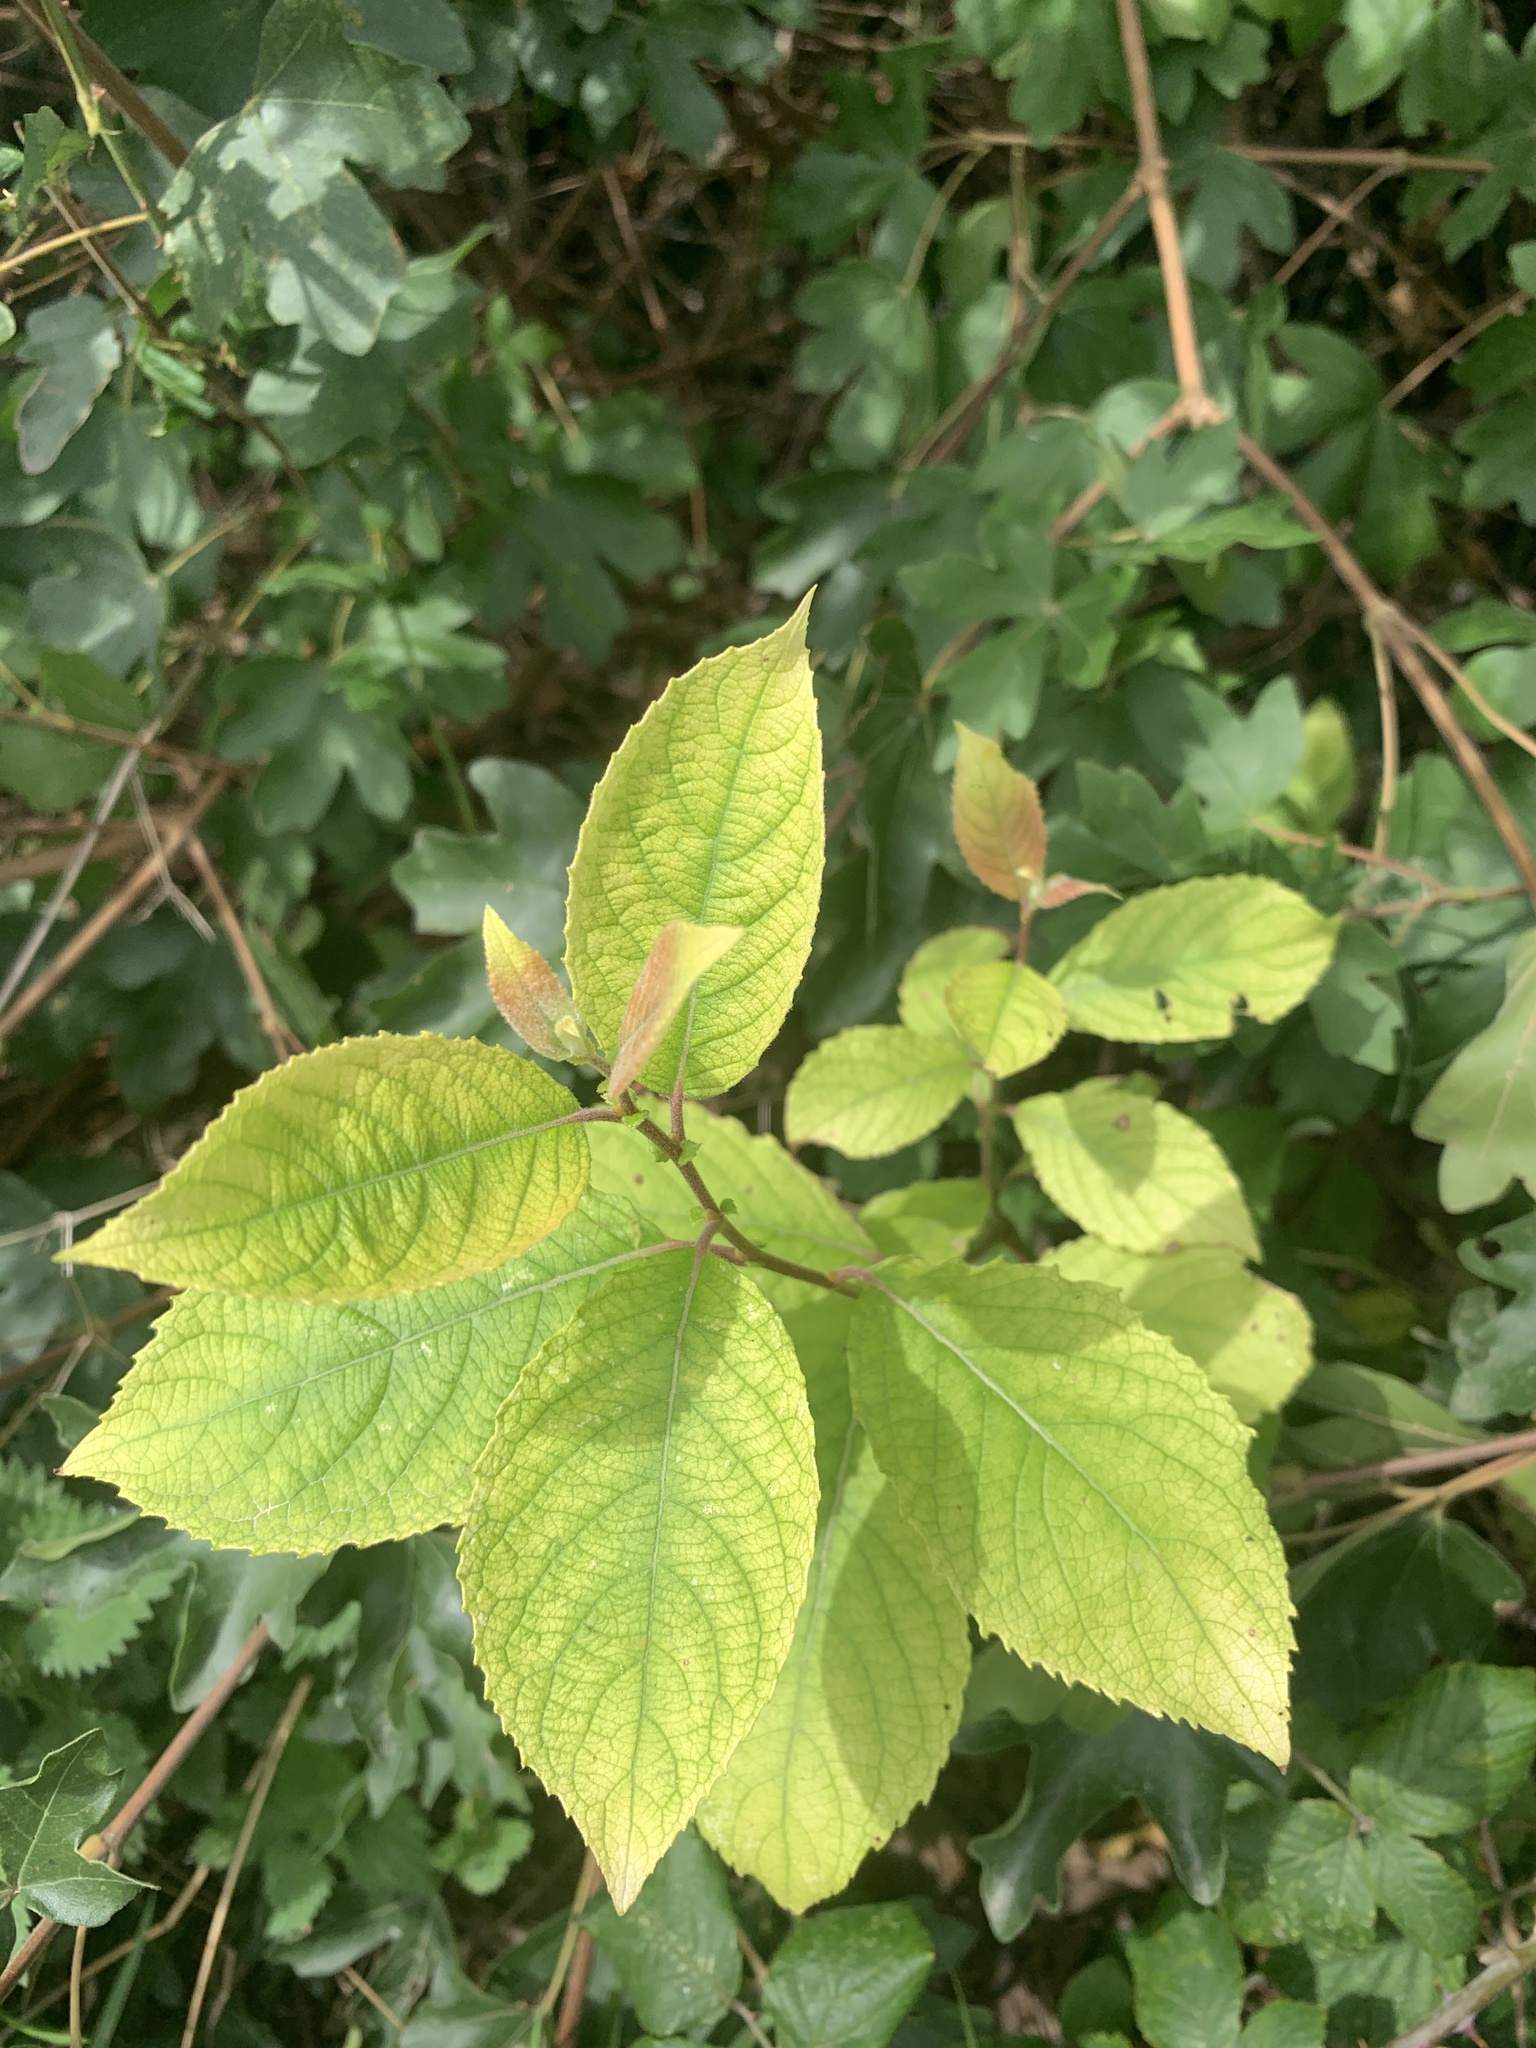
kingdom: Plantae
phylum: Tracheophyta
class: Magnoliopsida
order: Malpighiales
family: Salicaceae
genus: Salix
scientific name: Salix caprea
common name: Goat willow
